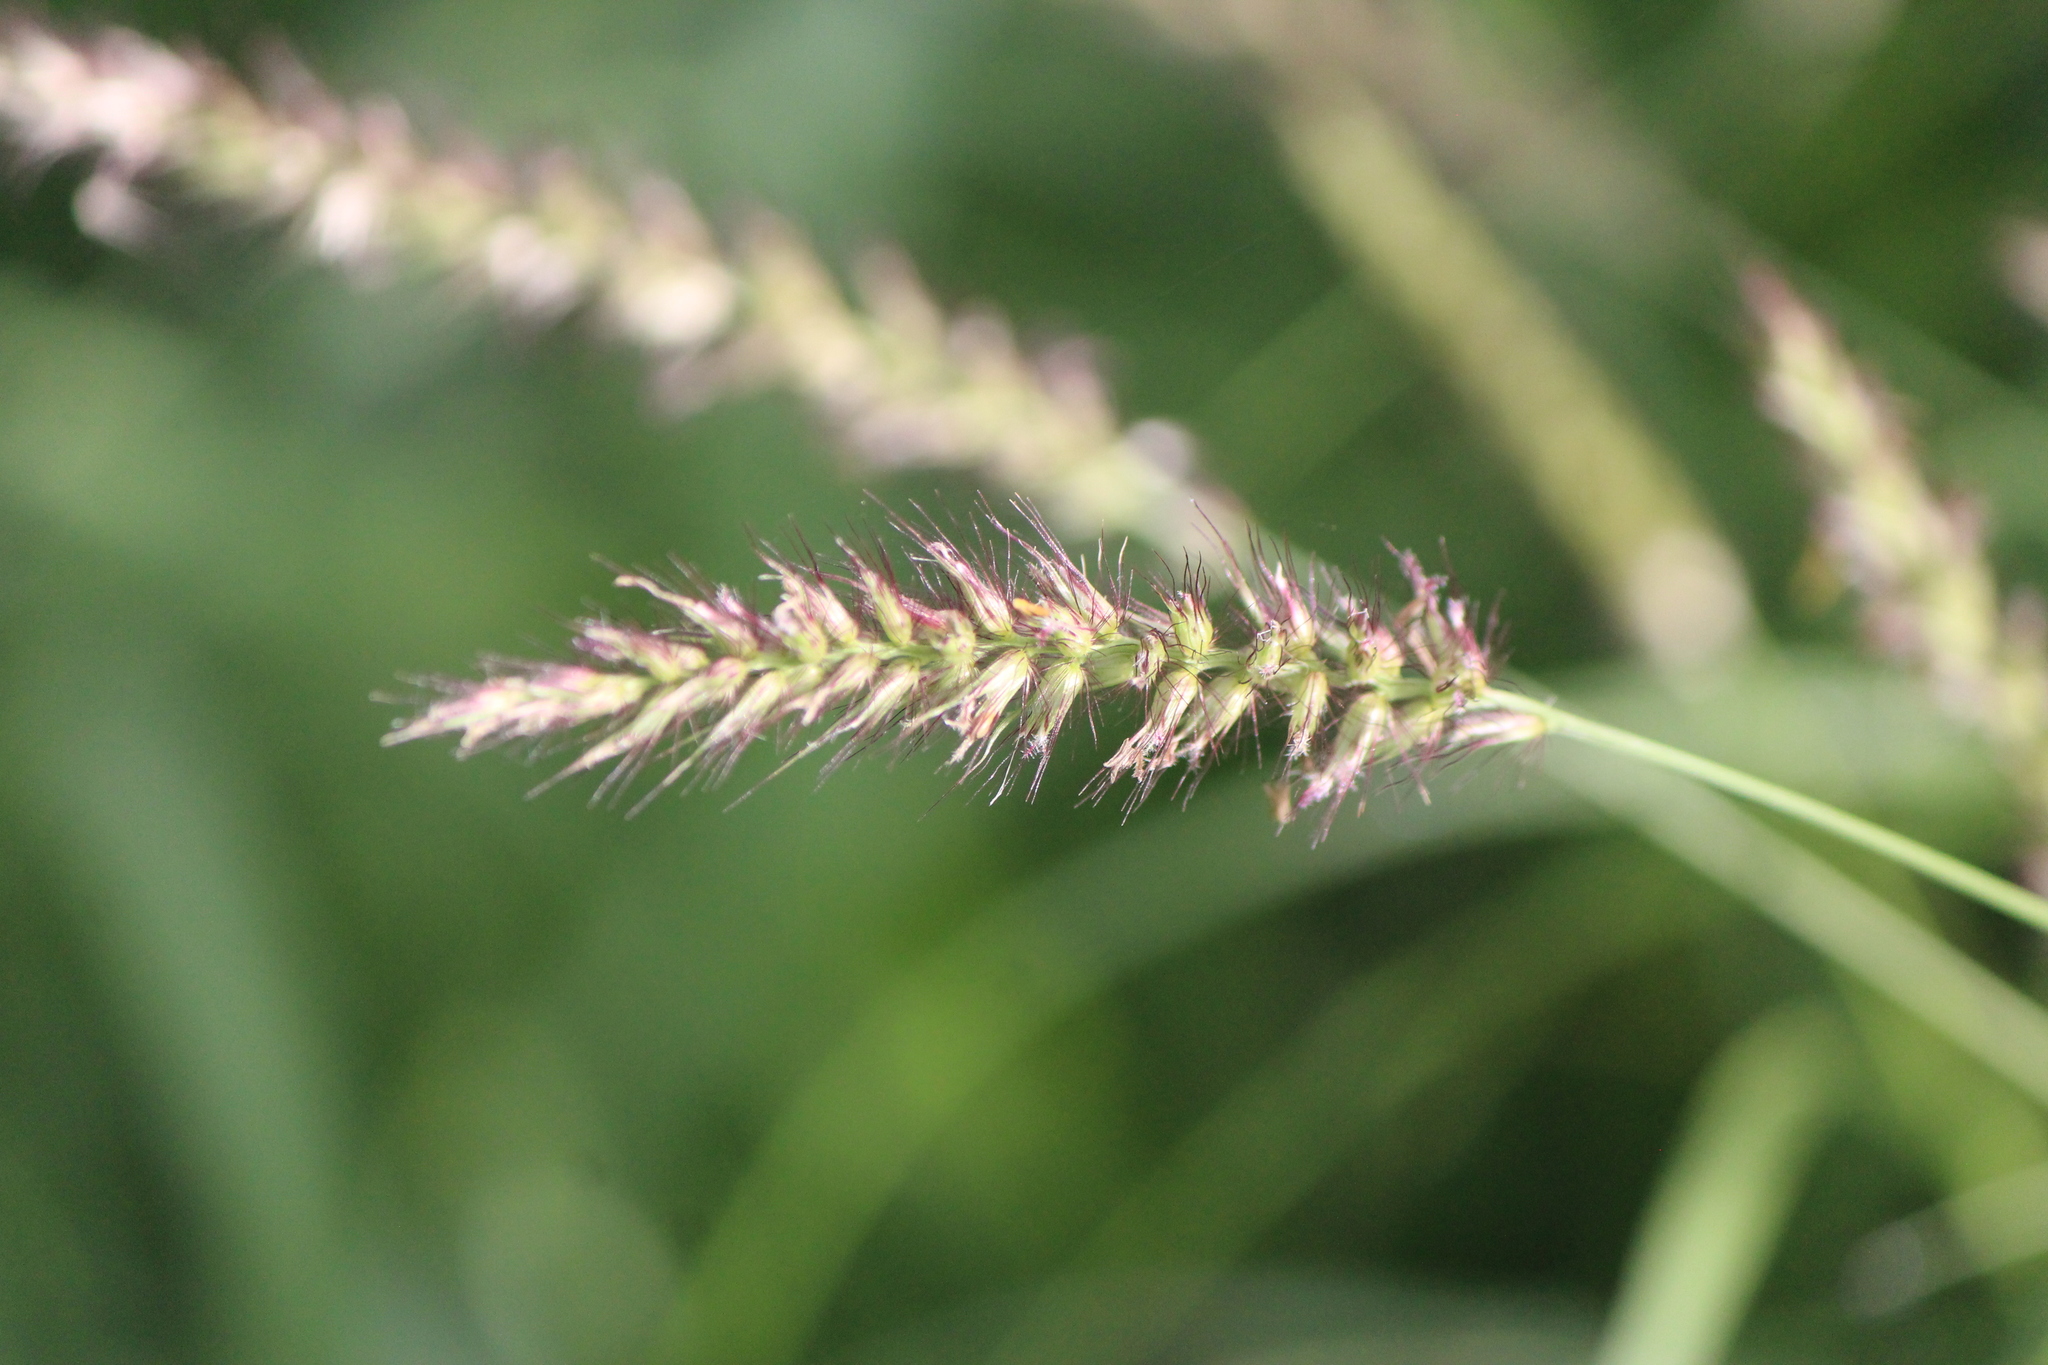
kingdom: Plantae
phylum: Tracheophyta
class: Liliopsida
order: Poales
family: Poaceae
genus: Cenchrus
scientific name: Cenchrus ciliaris
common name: Buffelgrass
